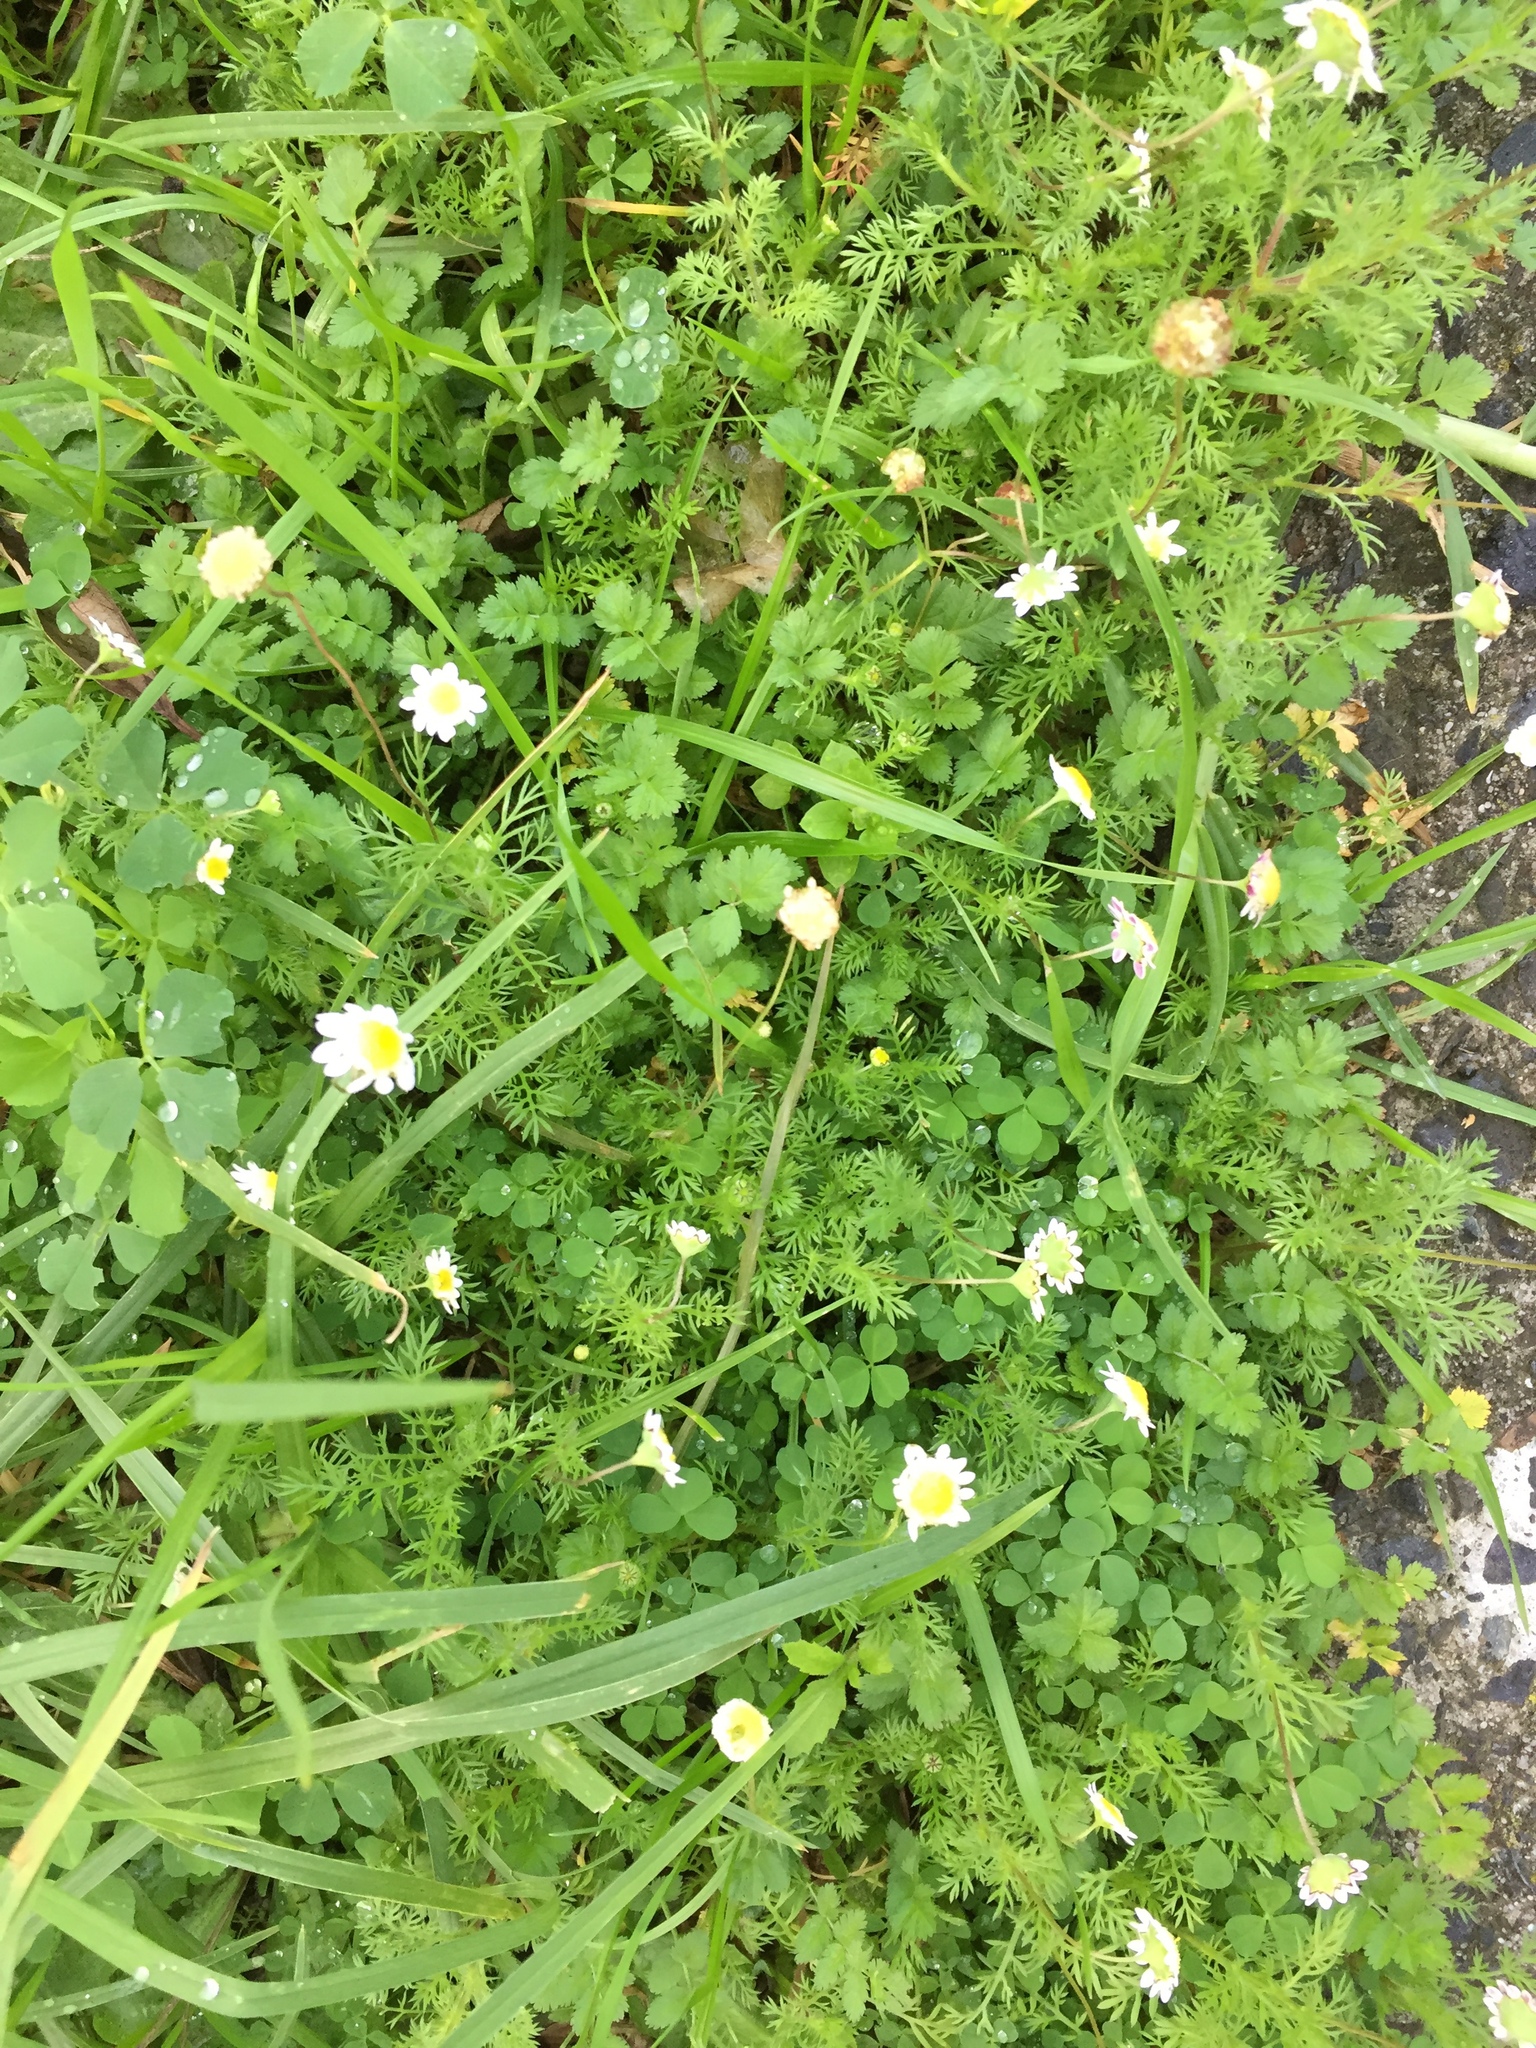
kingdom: Plantae
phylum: Tracheophyta
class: Magnoliopsida
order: Asterales
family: Asteraceae
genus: Cotula
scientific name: Cotula turbinata
